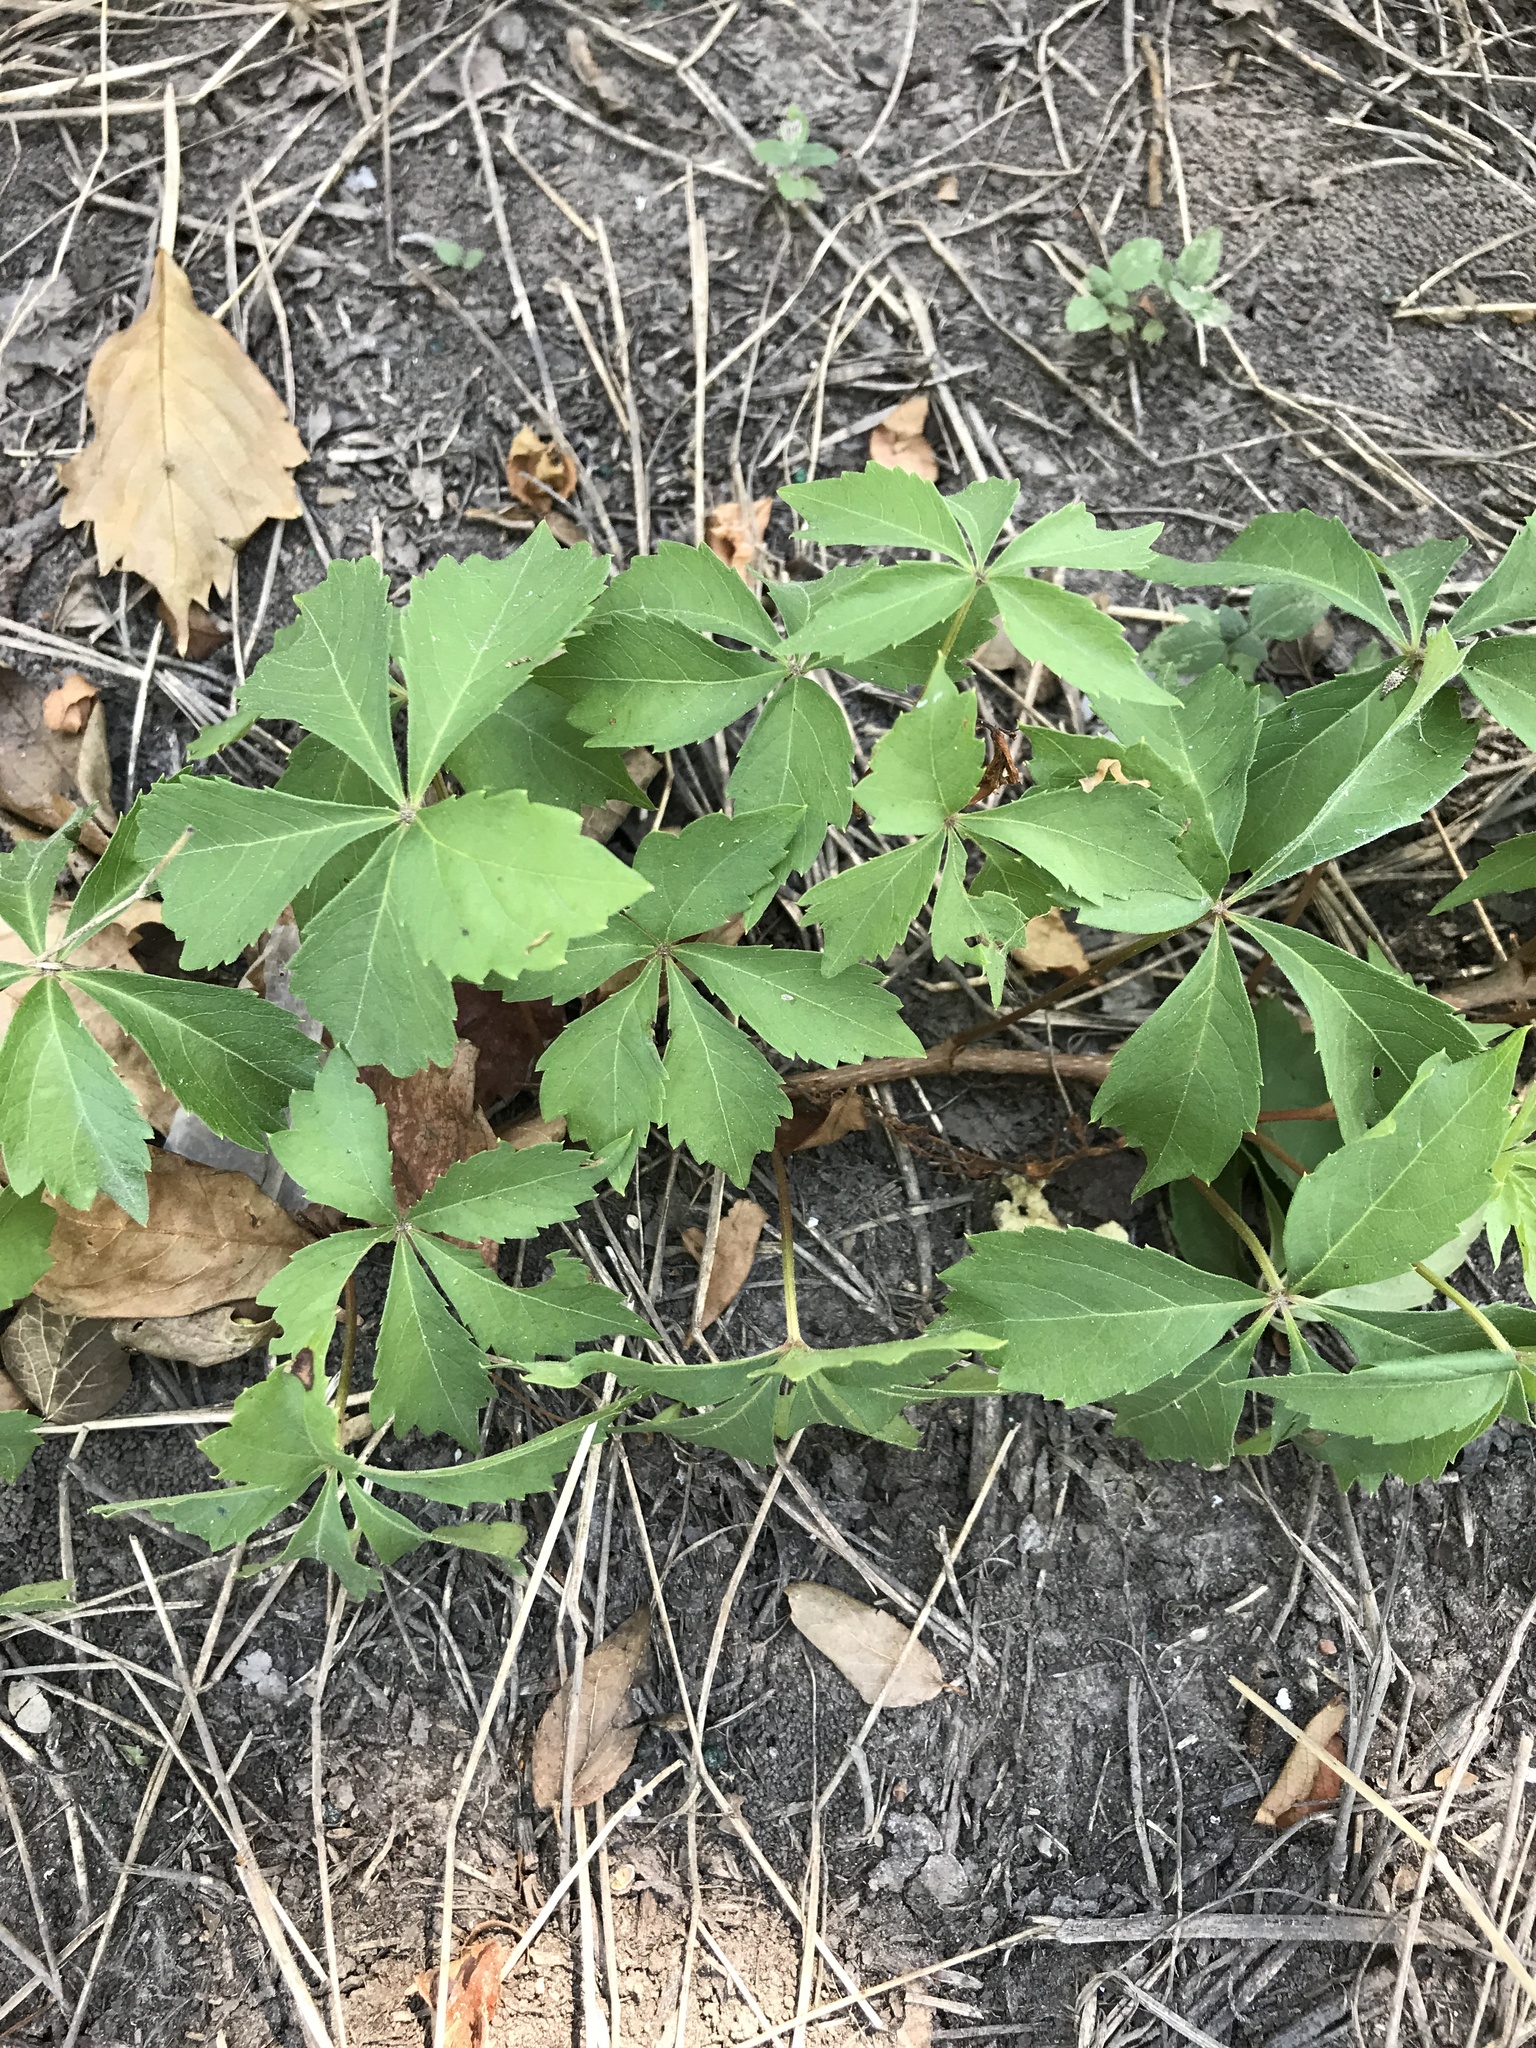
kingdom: Plantae
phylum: Tracheophyta
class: Magnoliopsida
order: Vitales
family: Vitaceae
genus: Parthenocissus
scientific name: Parthenocissus quinquefolia
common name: Virginia-creeper
